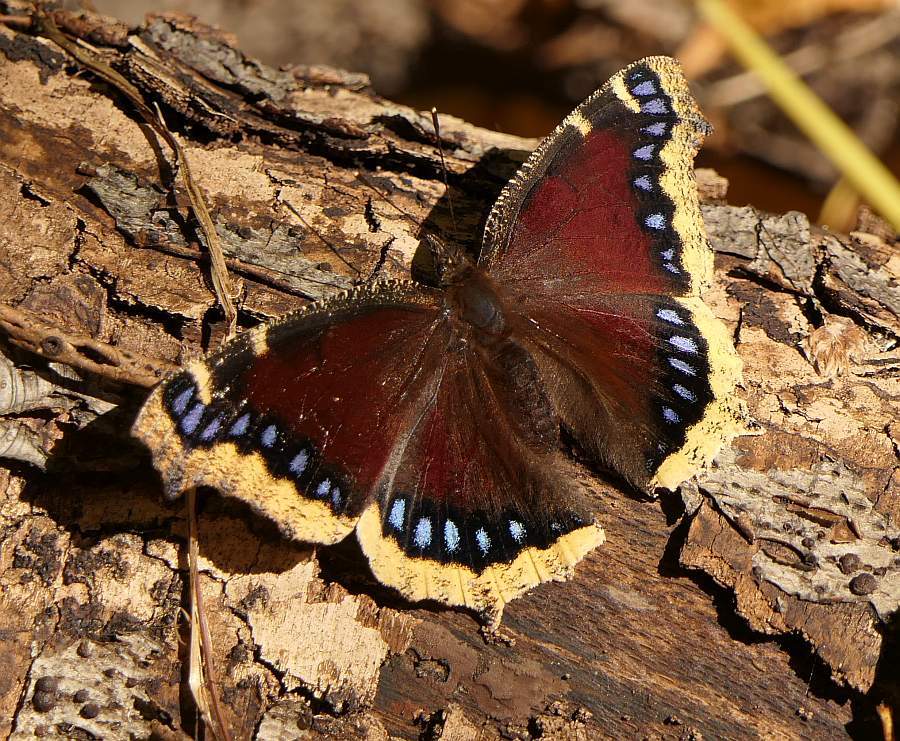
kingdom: Animalia
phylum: Arthropoda
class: Insecta
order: Lepidoptera
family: Nymphalidae
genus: Nymphalis
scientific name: Nymphalis antiopa
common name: Camberwell beauty
